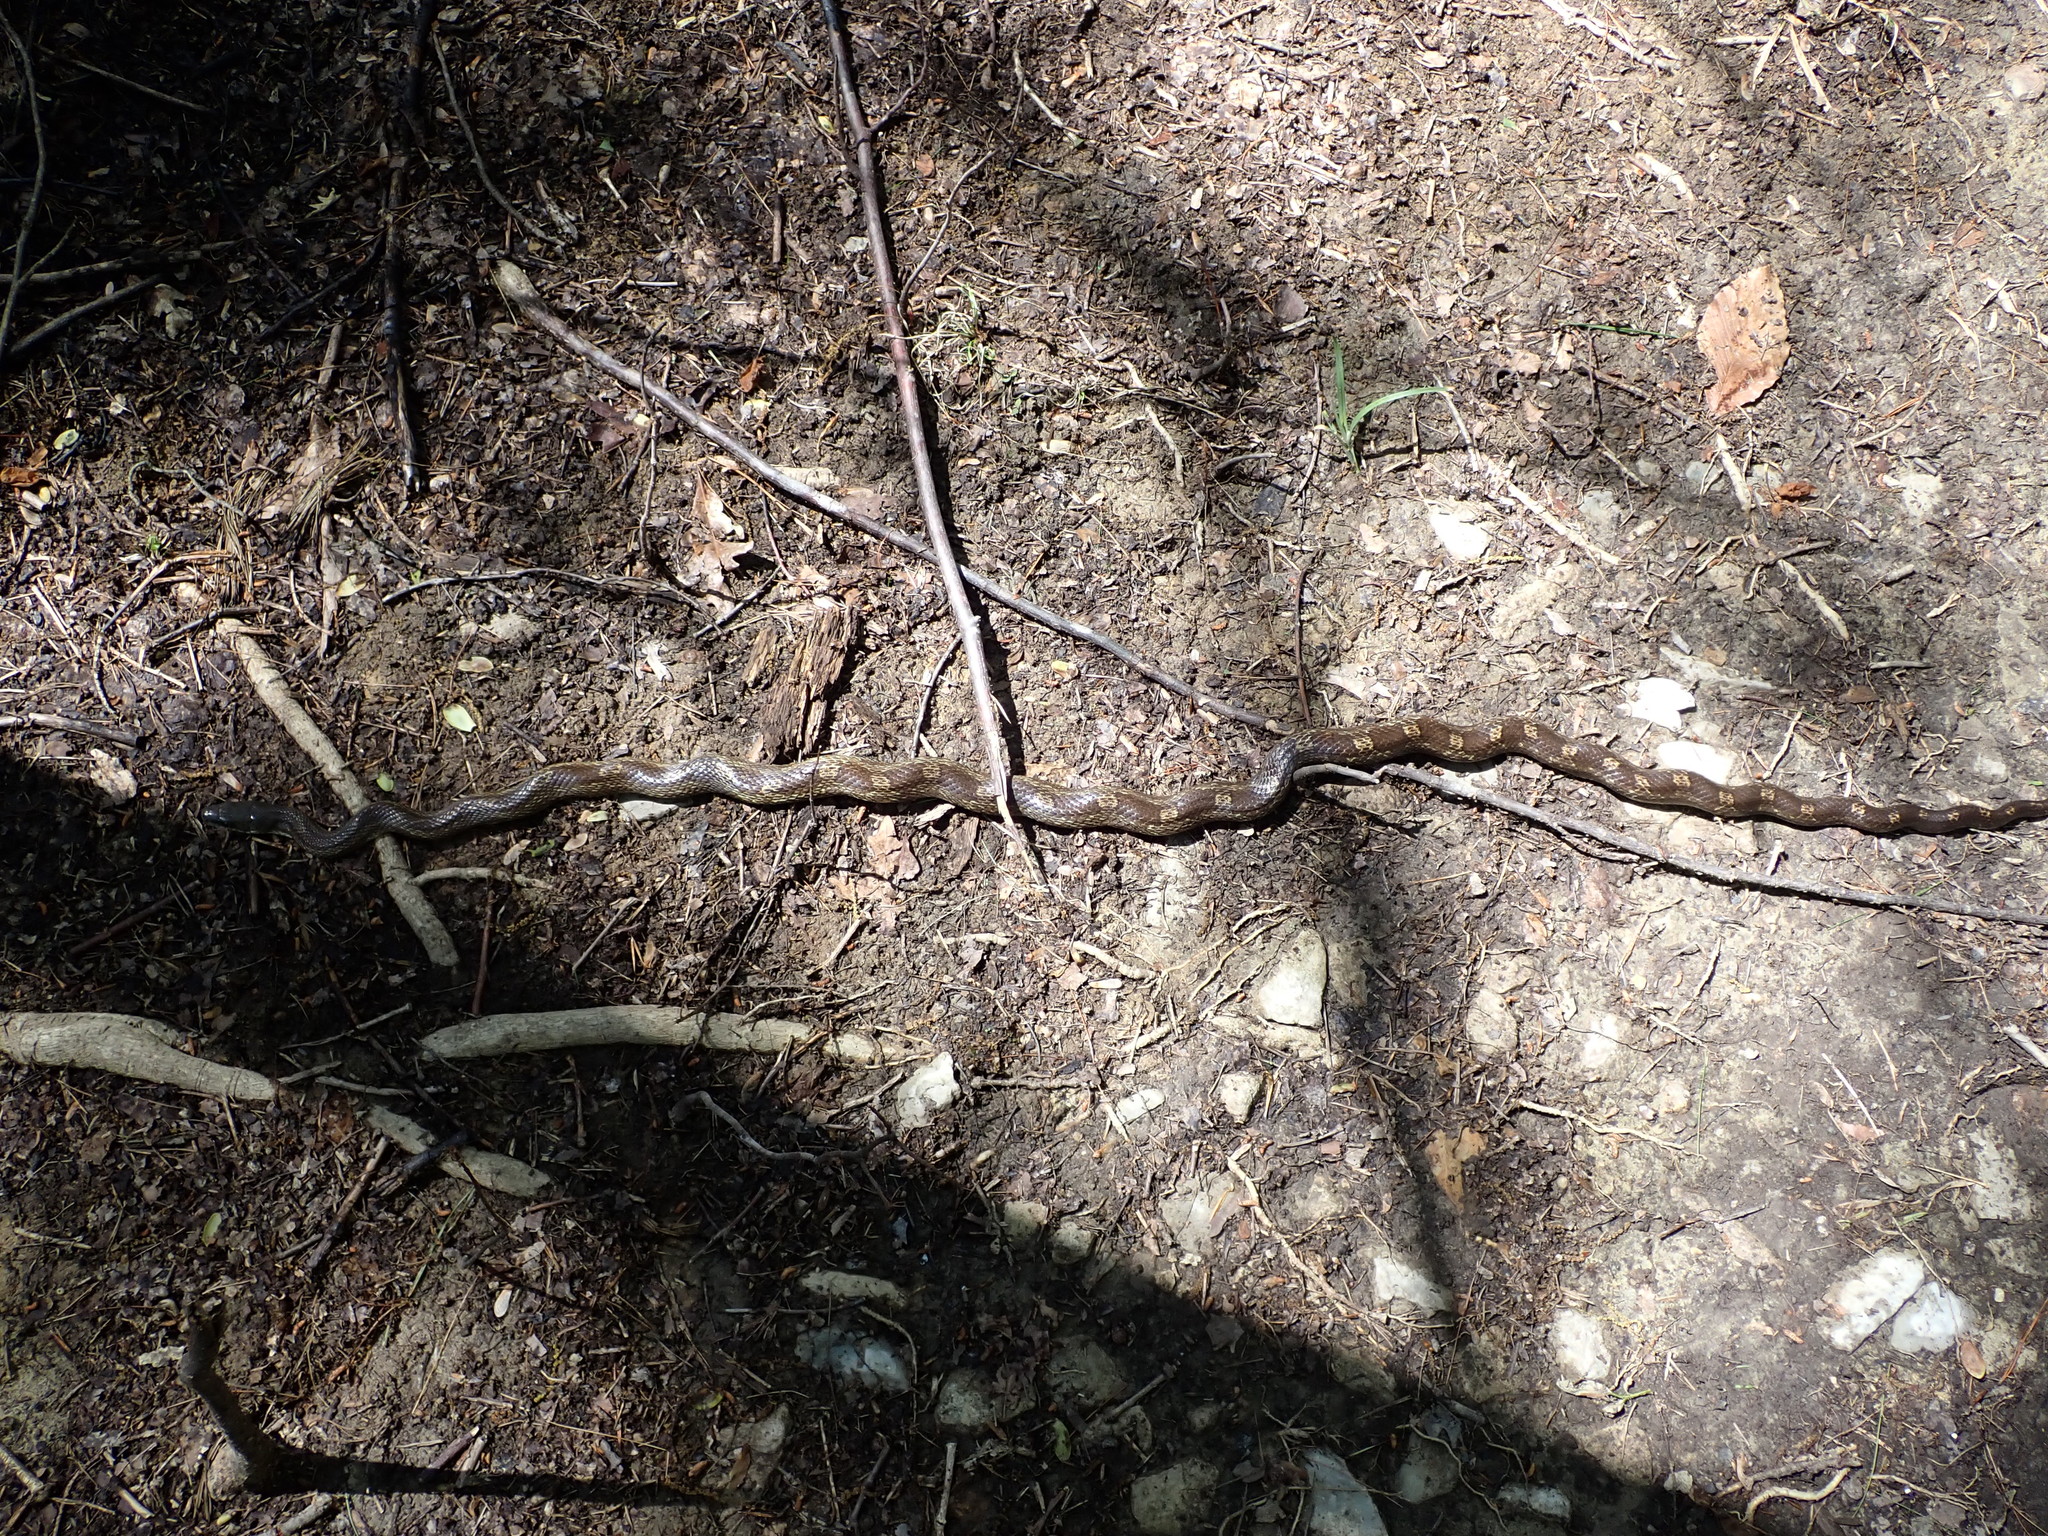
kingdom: Animalia
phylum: Chordata
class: Squamata
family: Colubridae
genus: Pantherophis
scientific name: Pantherophis spiloides
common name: Gray rat snake
